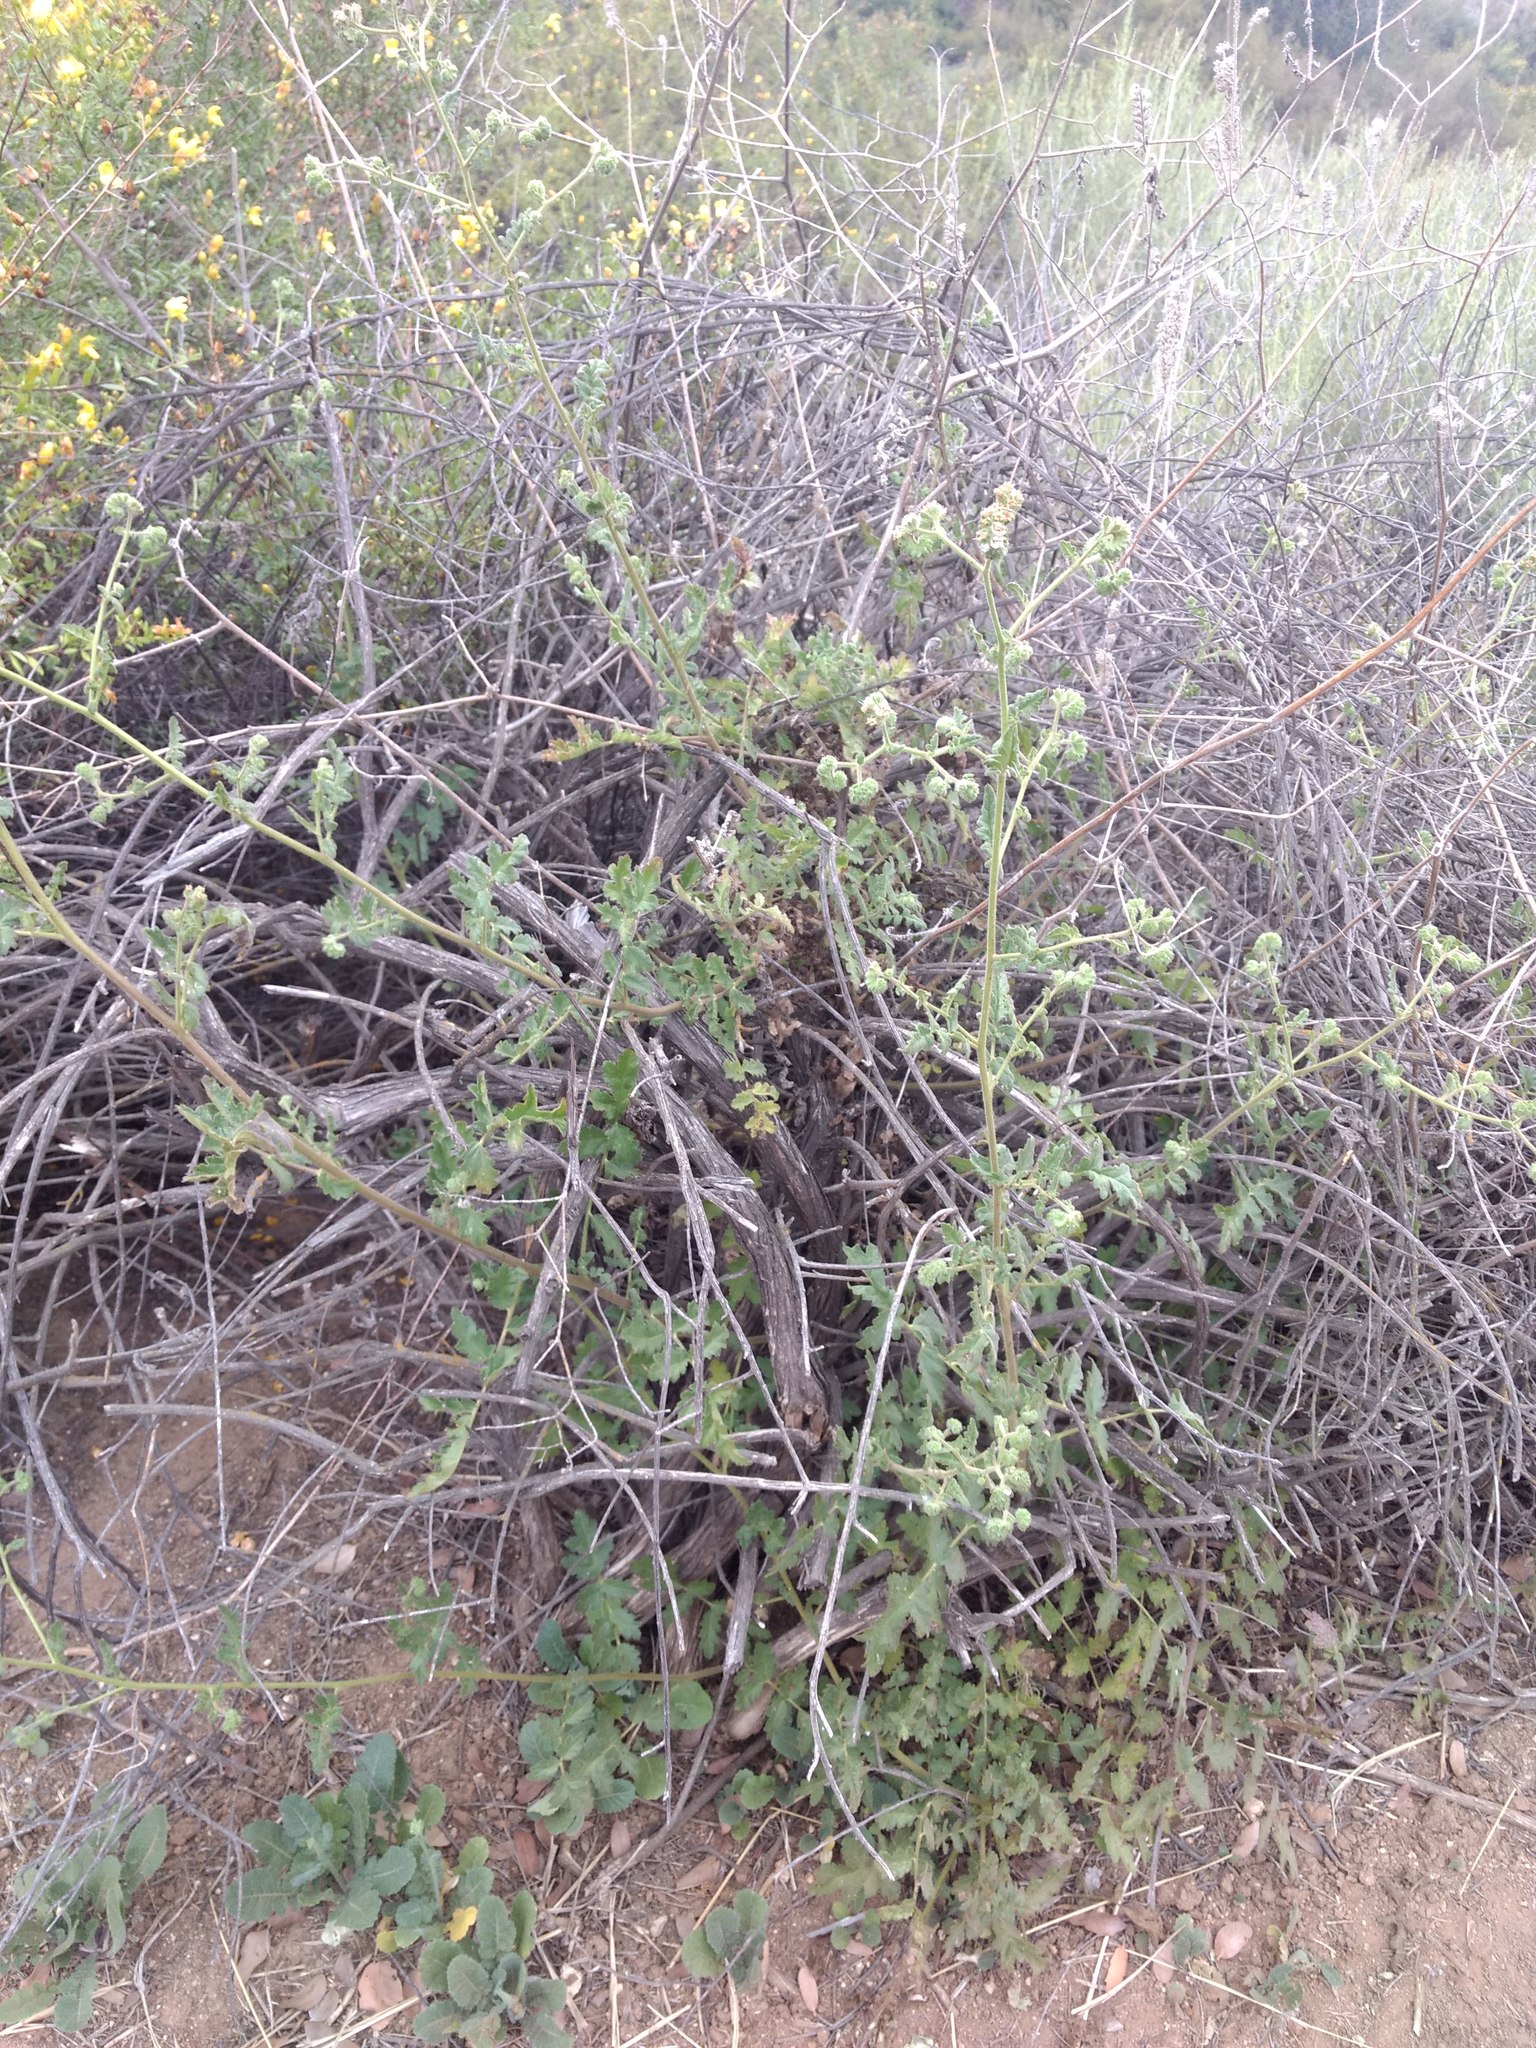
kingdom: Plantae
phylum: Tracheophyta
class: Magnoliopsida
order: Boraginales
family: Hydrophyllaceae
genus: Phacelia
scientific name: Phacelia ramosissima
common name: Branching phacelia
